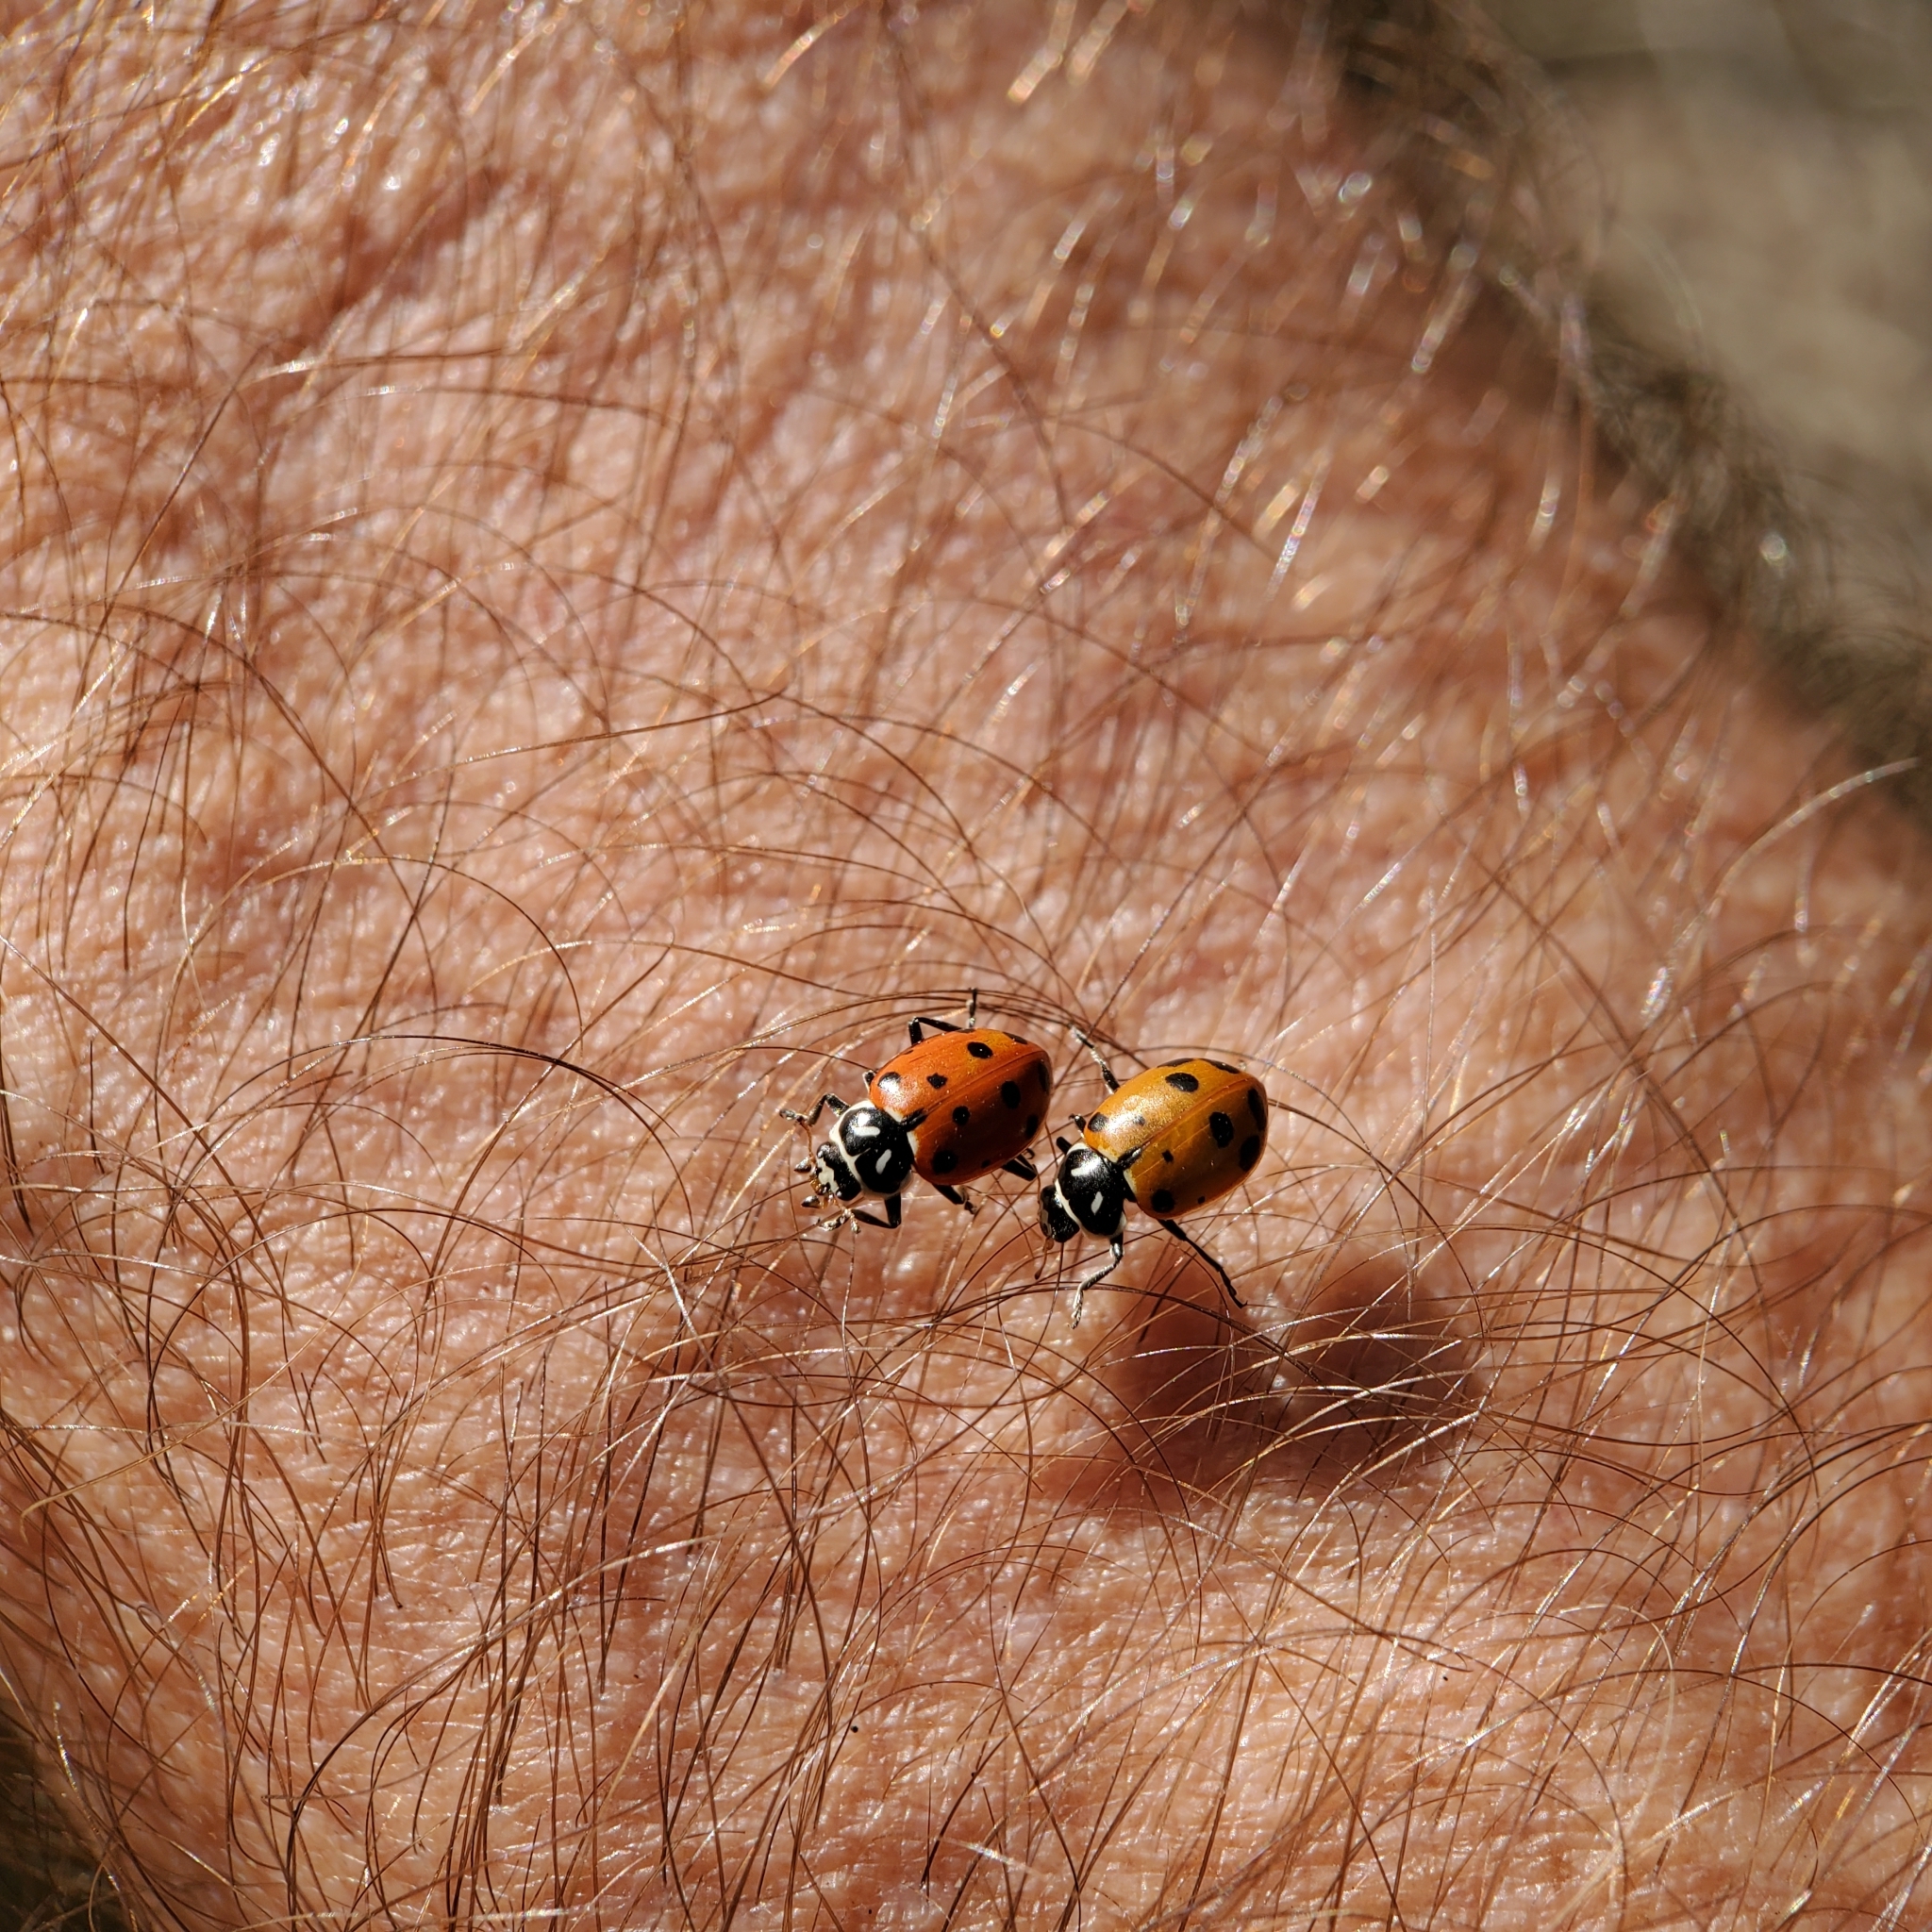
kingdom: Animalia
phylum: Arthropoda
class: Insecta
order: Coleoptera
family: Coccinellidae
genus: Hippodamia
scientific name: Hippodamia convergens
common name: Convergent lady beetle
